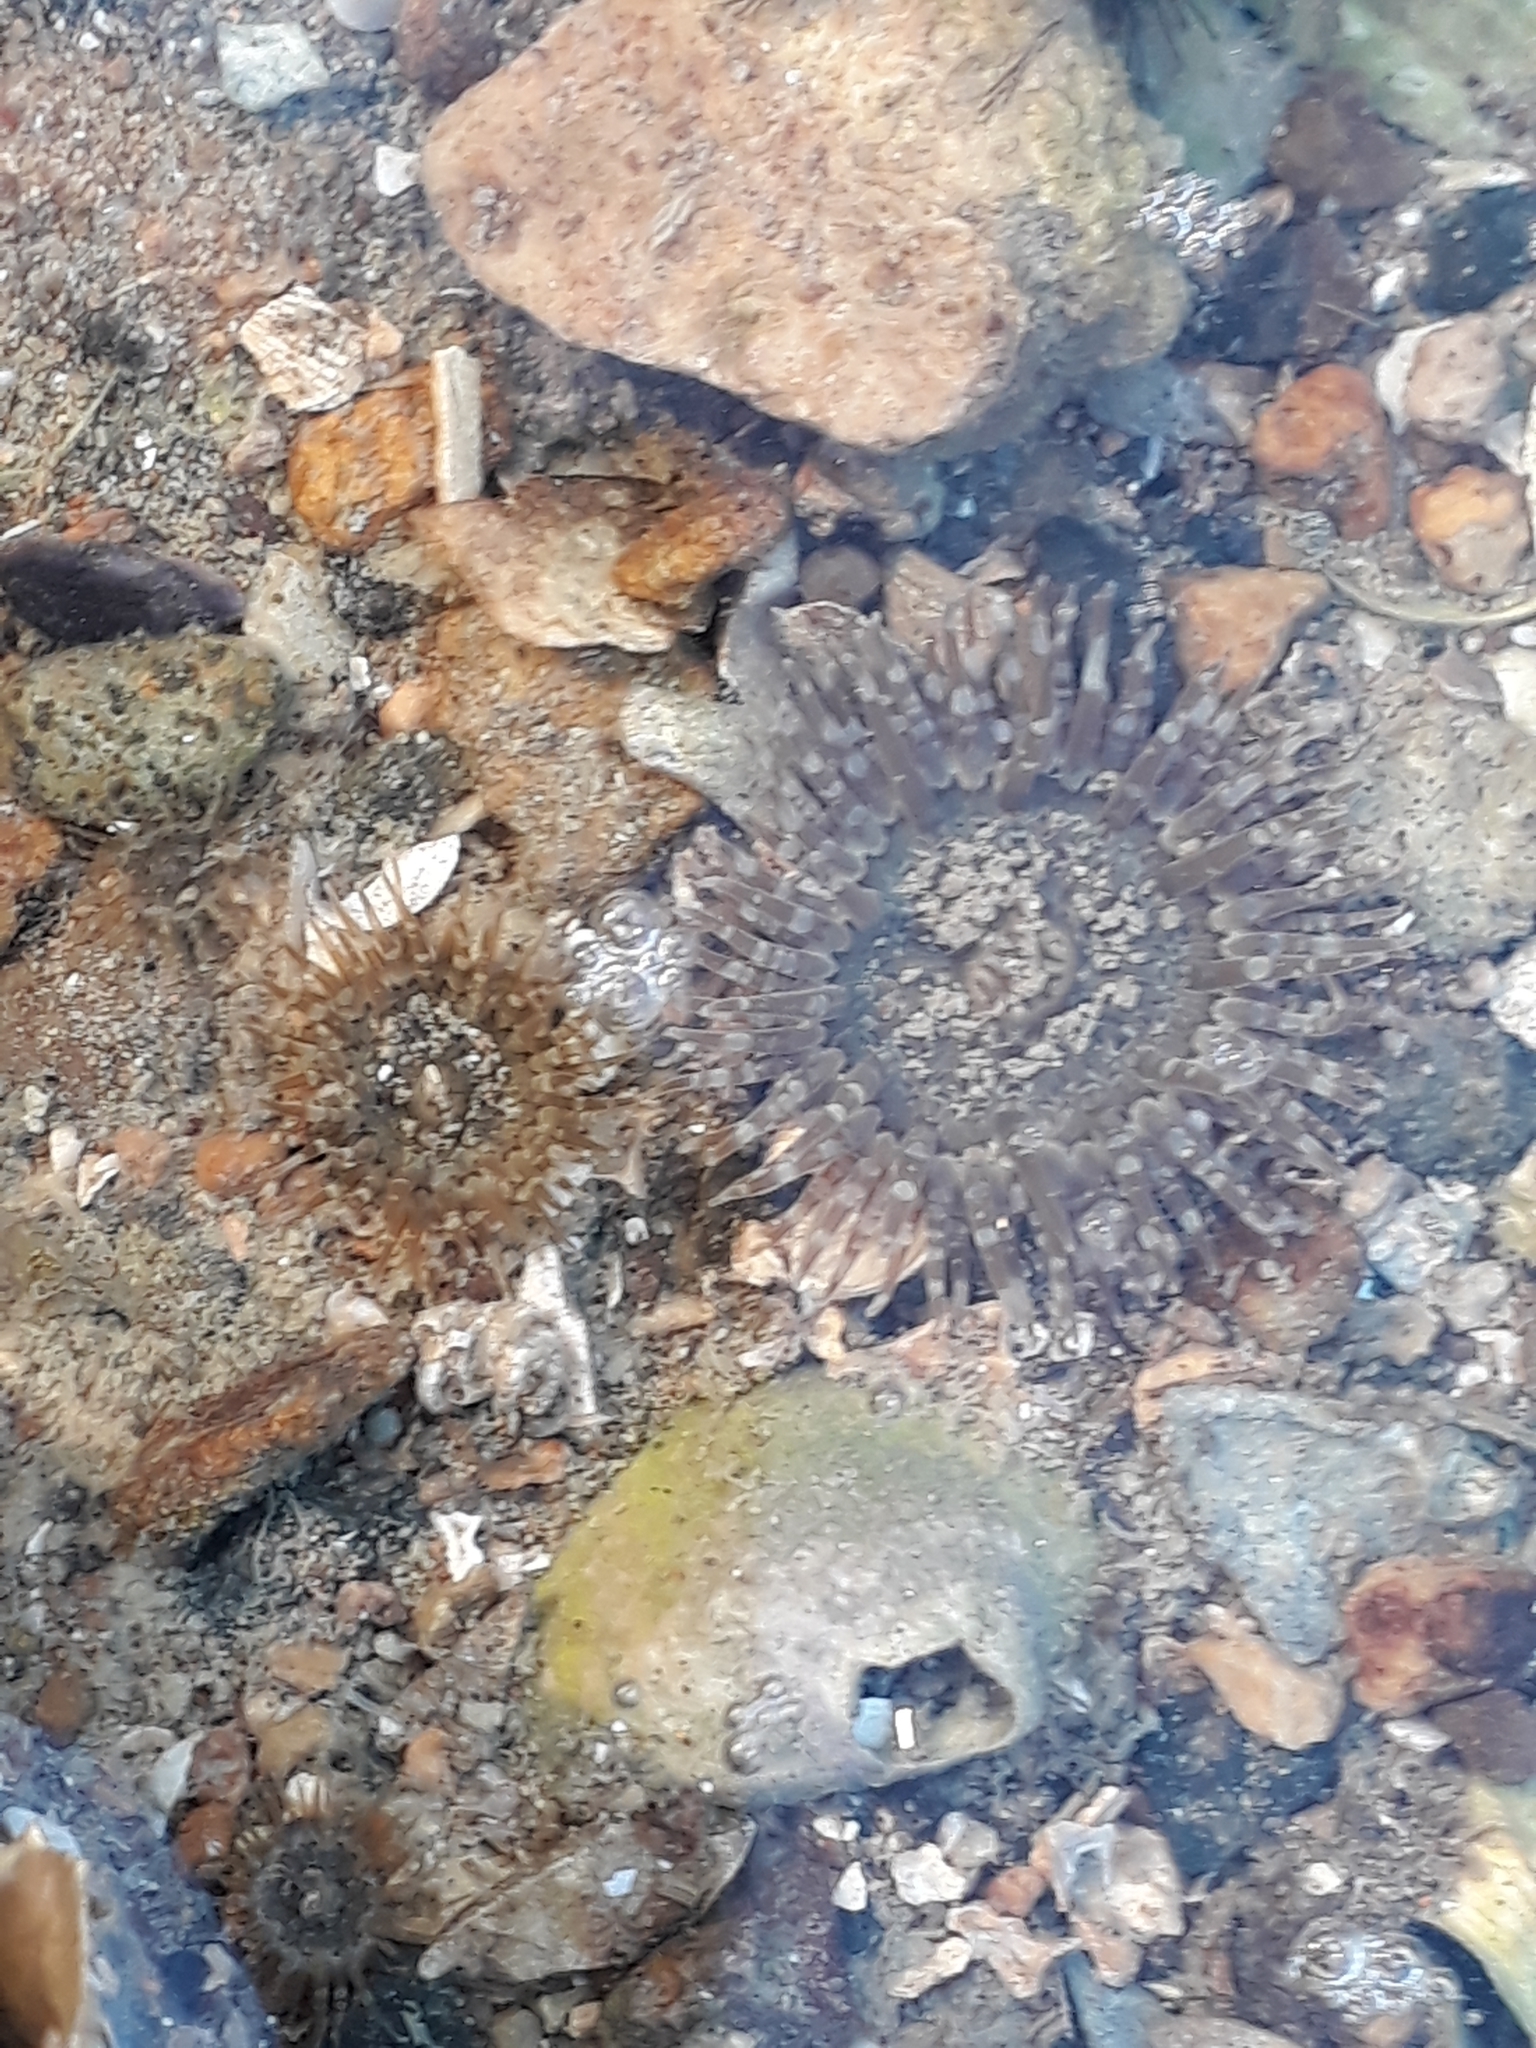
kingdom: Animalia
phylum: Cnidaria
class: Anthozoa
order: Actiniaria
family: Actiniidae
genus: Anthopleura
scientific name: Anthopleura hermaphroditica
